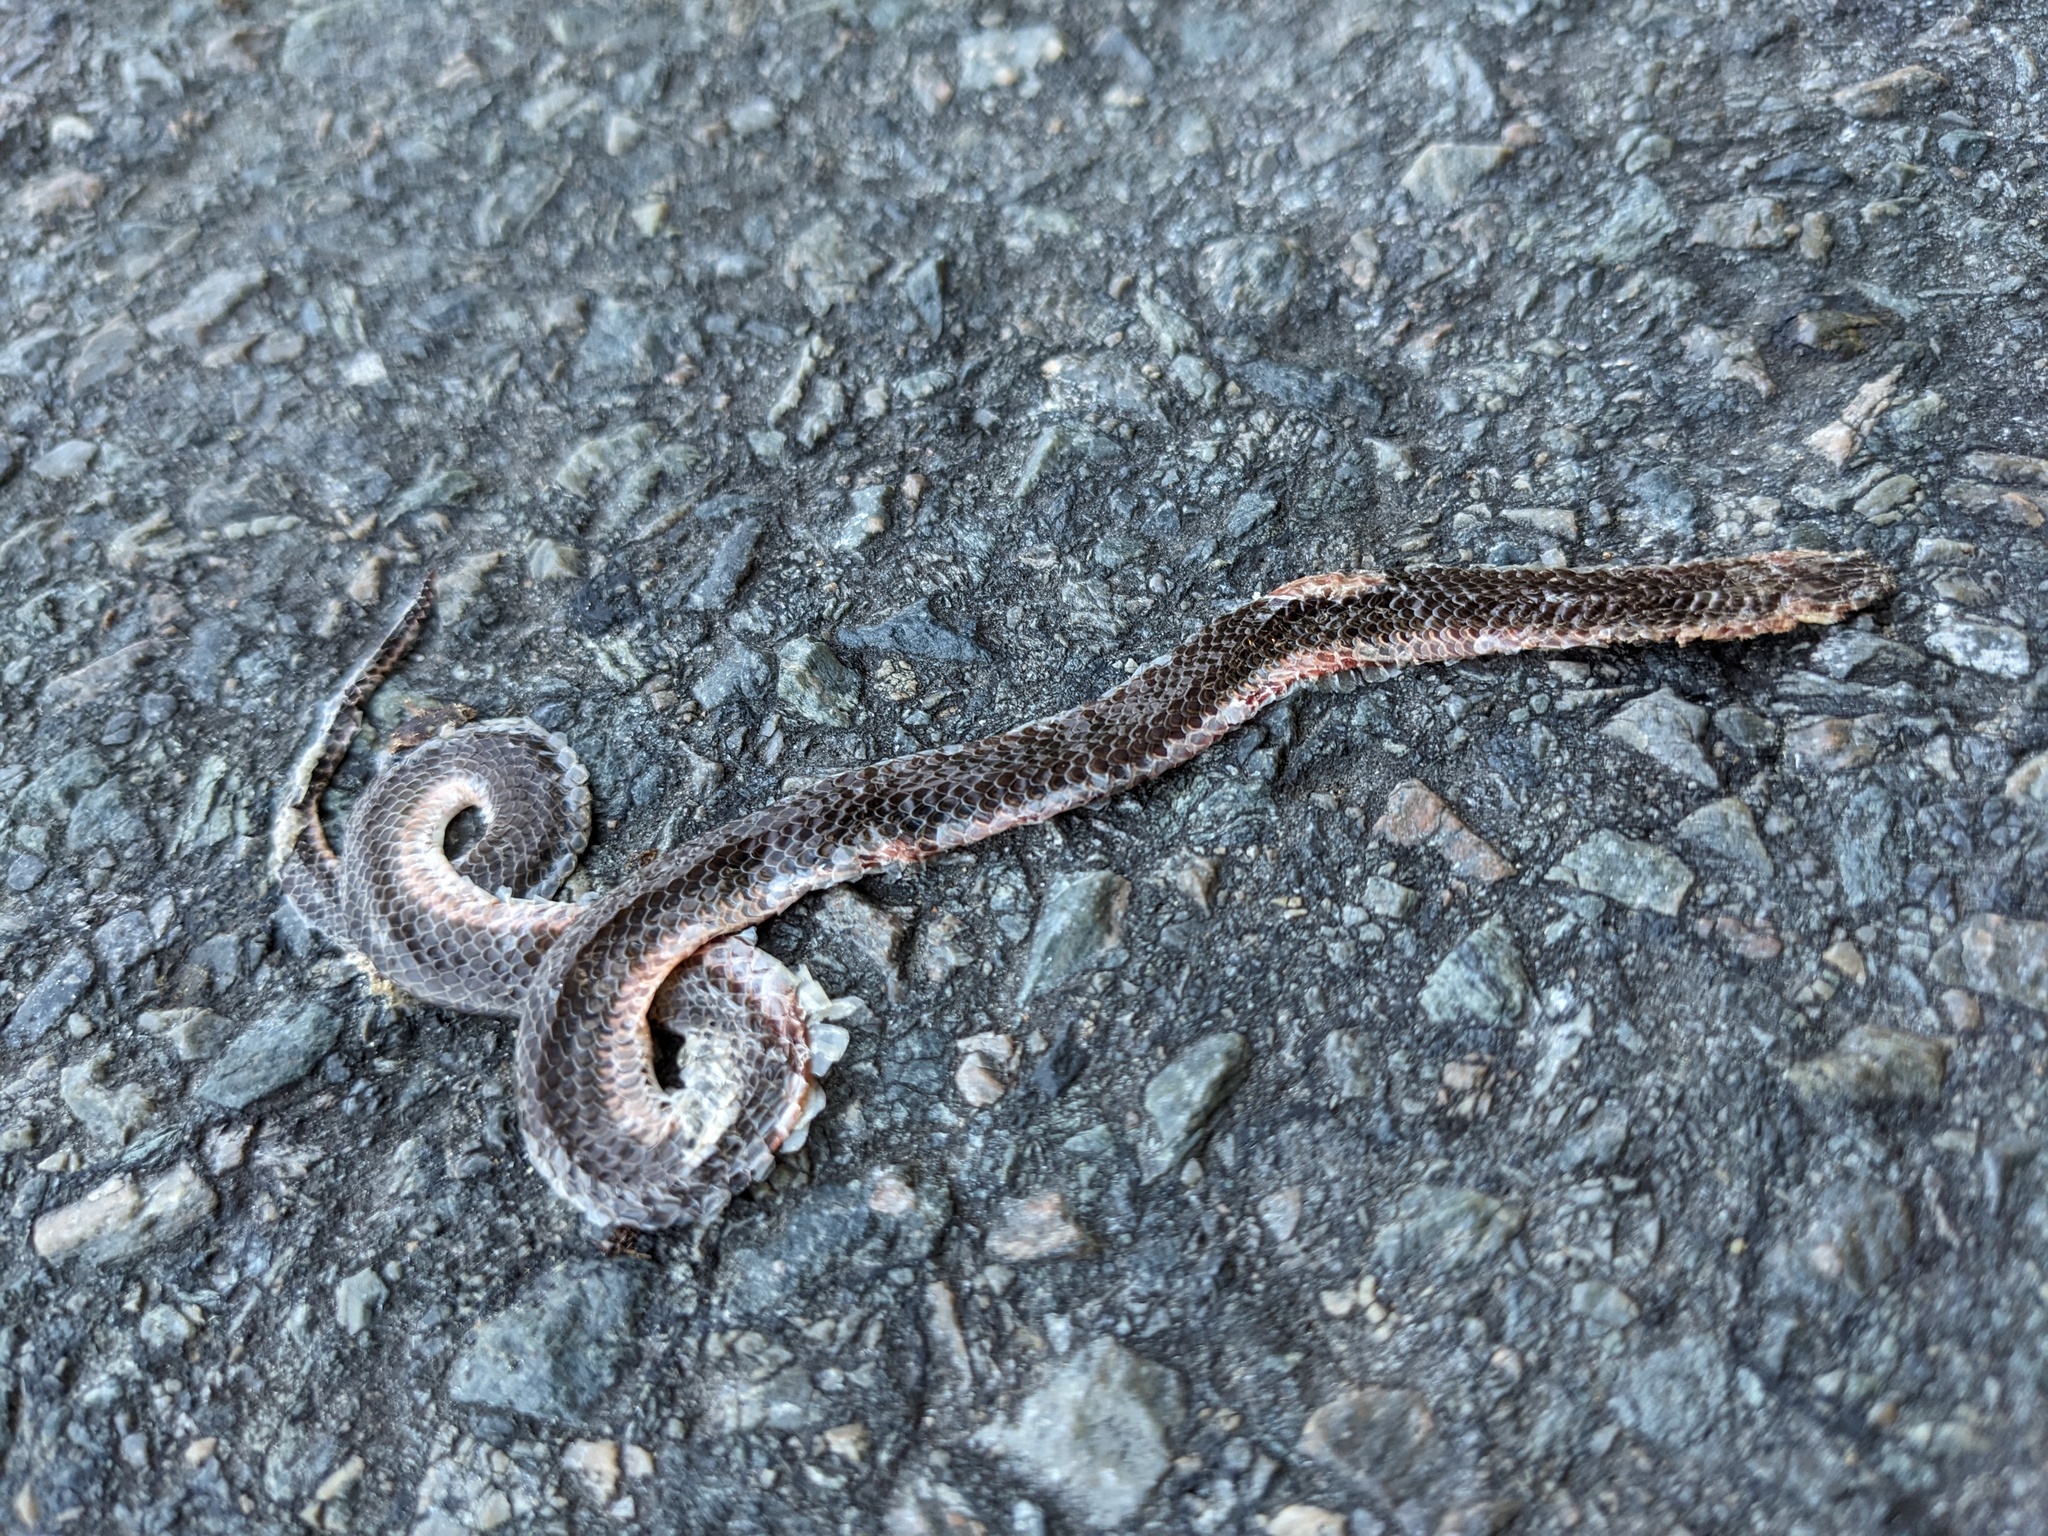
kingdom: Animalia
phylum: Chordata
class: Squamata
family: Colubridae
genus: Carphophis
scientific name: Carphophis amoenus
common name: Eastern worm snake
